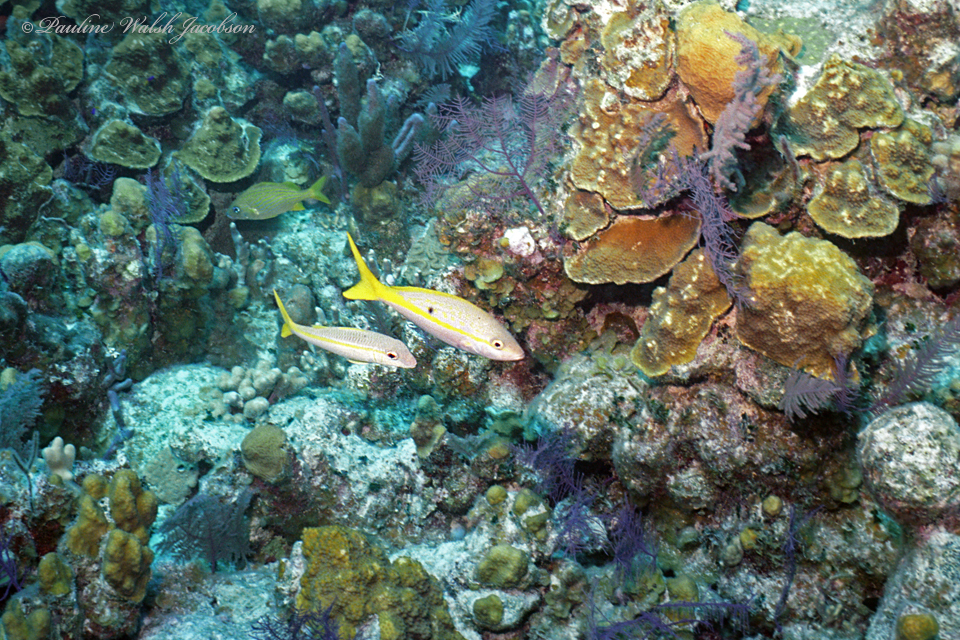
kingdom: Animalia
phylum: Chordata
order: Perciformes
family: Lutjanidae
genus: Ocyurus
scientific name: Ocyurus chrysurus
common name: Yellowtail snapper
